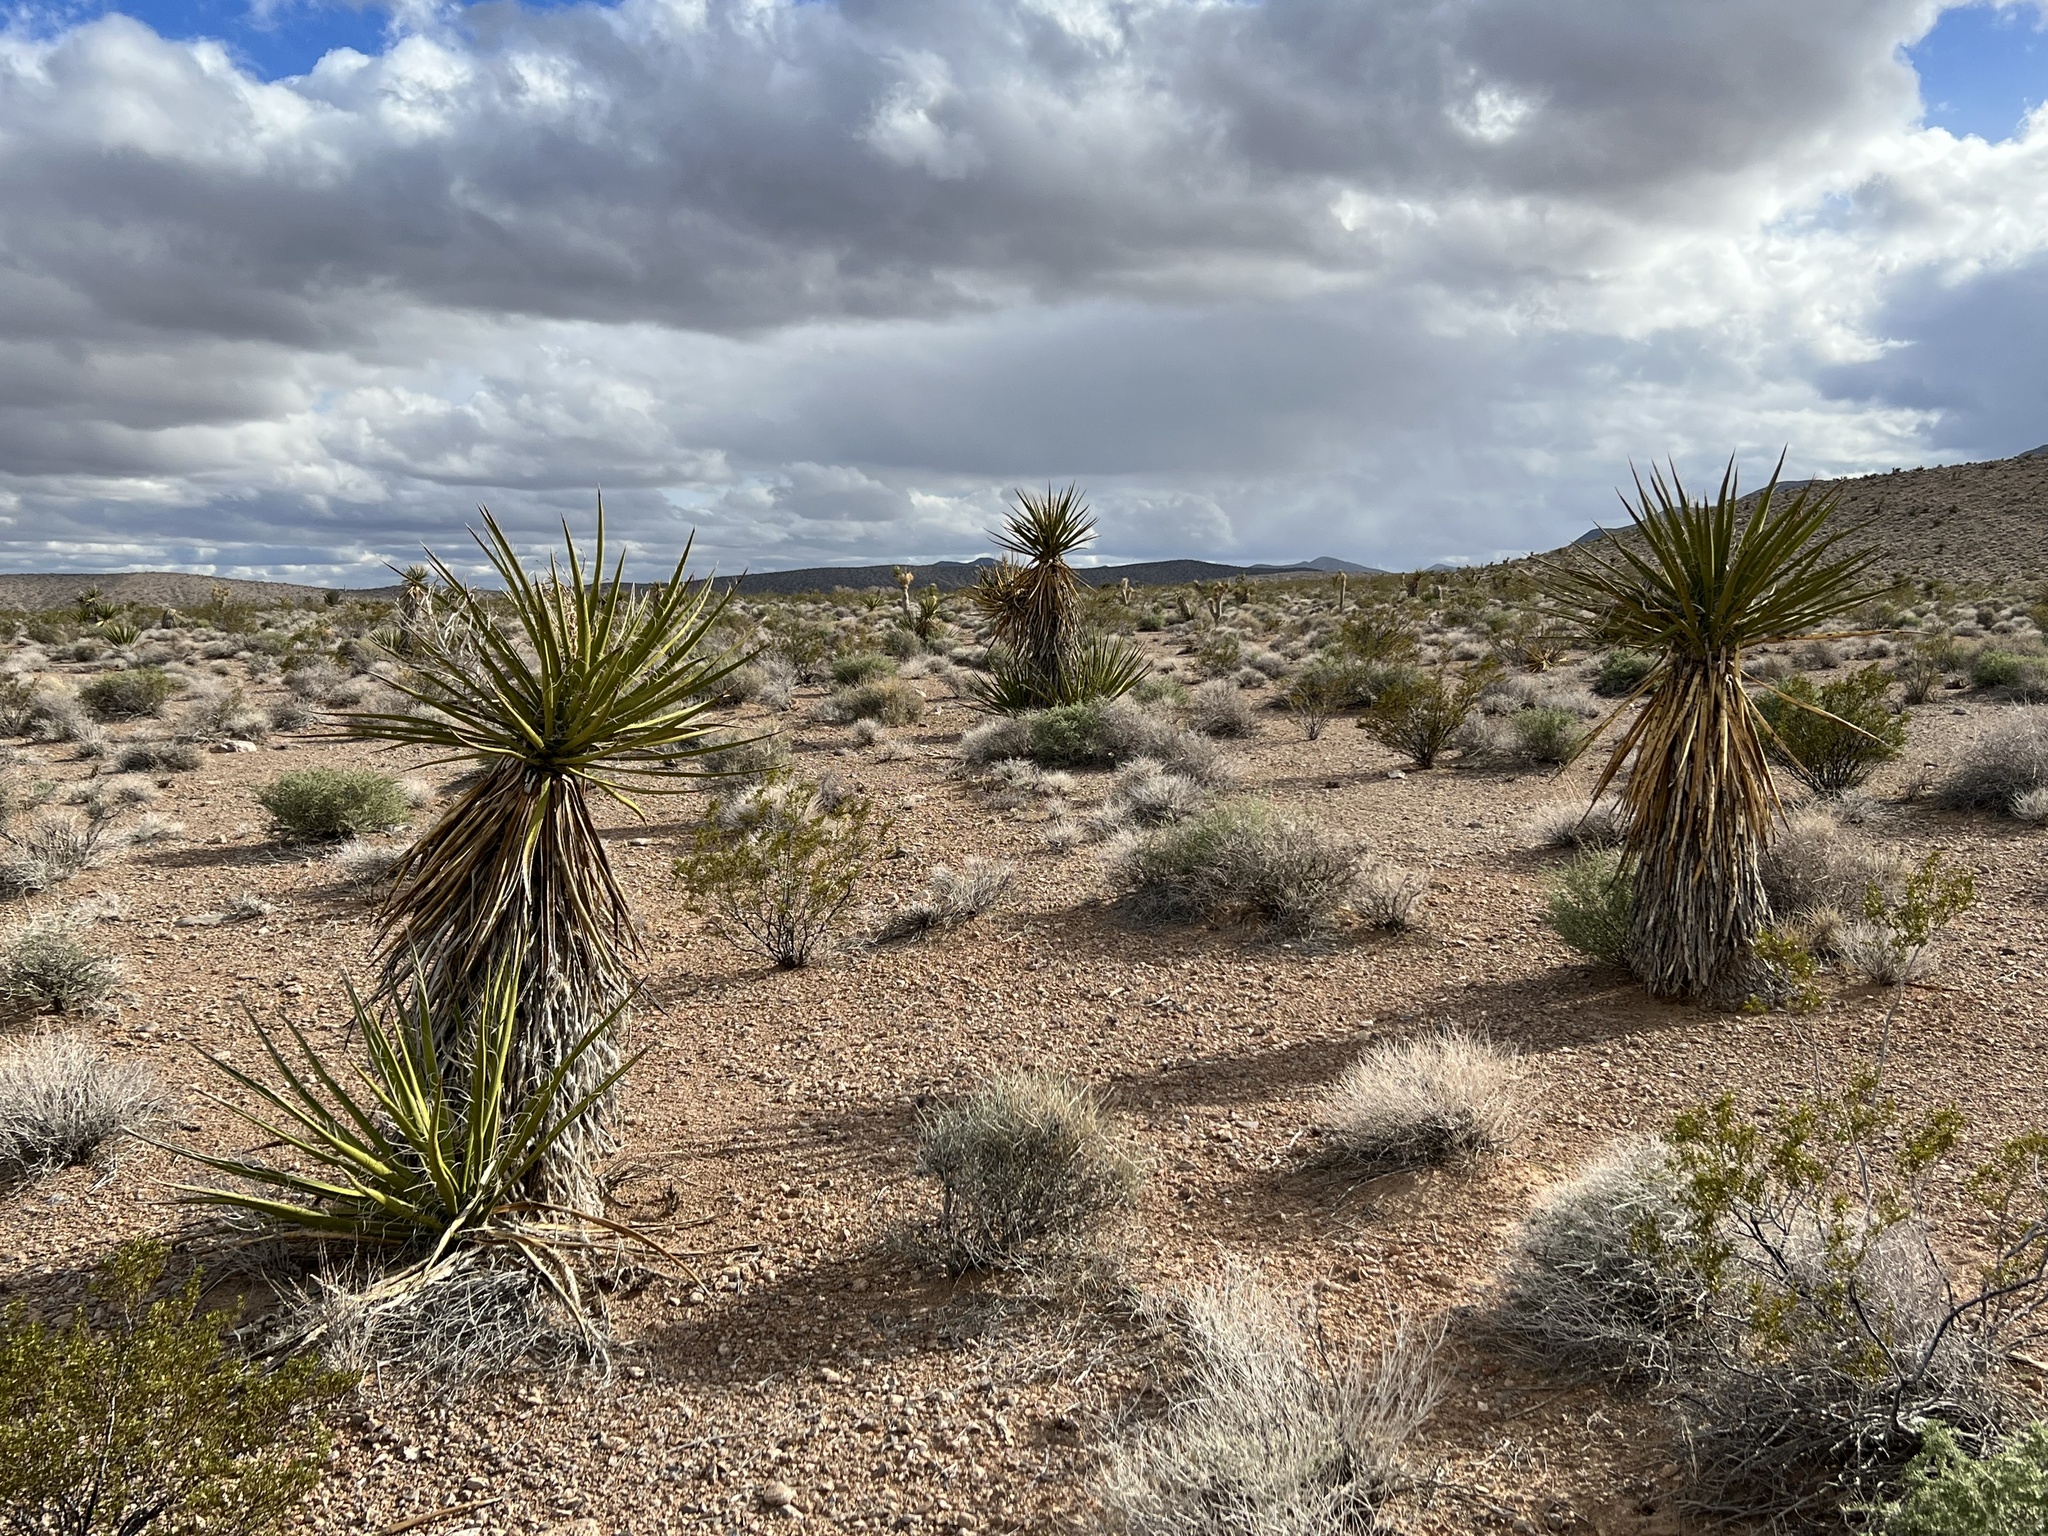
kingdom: Plantae
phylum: Tracheophyta
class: Liliopsida
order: Asparagales
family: Asparagaceae
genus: Yucca
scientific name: Yucca schidigera
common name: Mojave yucca
